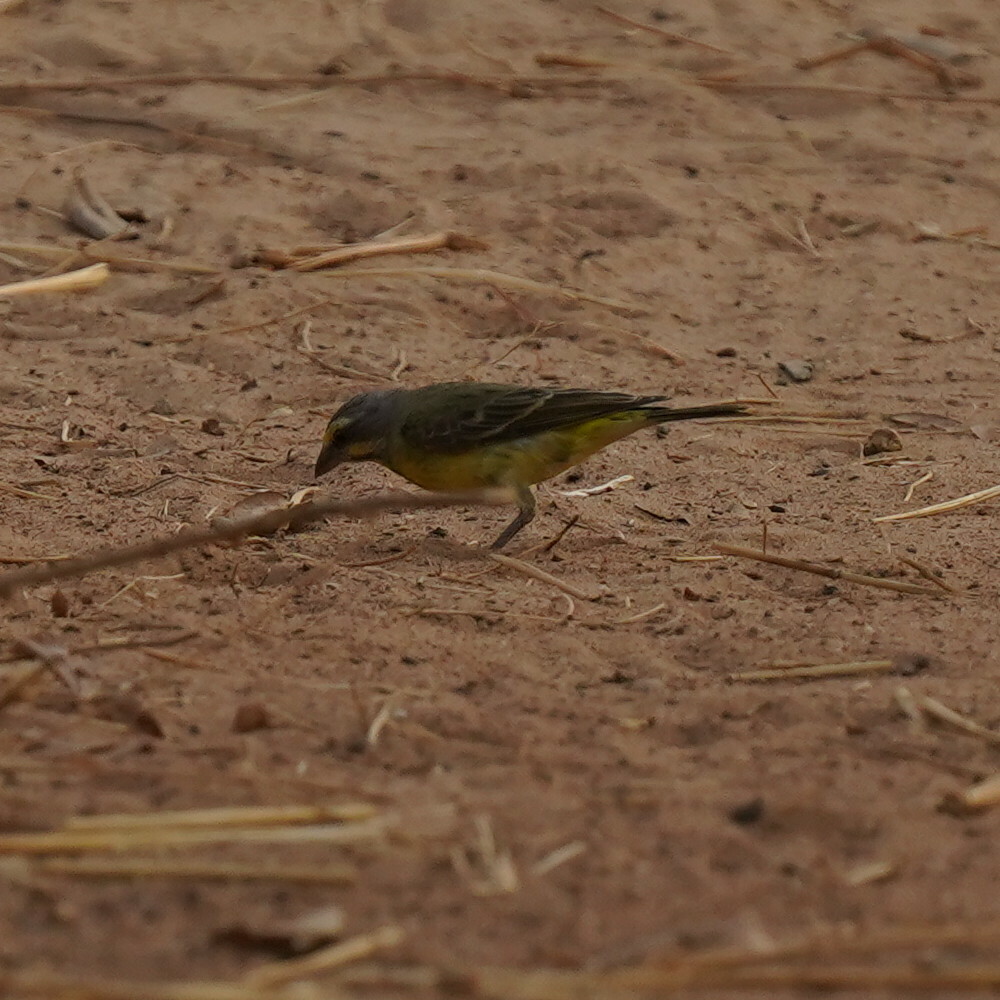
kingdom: Animalia
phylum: Chordata
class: Aves
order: Passeriformes
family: Fringillidae
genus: Crithagra
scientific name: Crithagra mozambica
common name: Yellow-fronted canary
